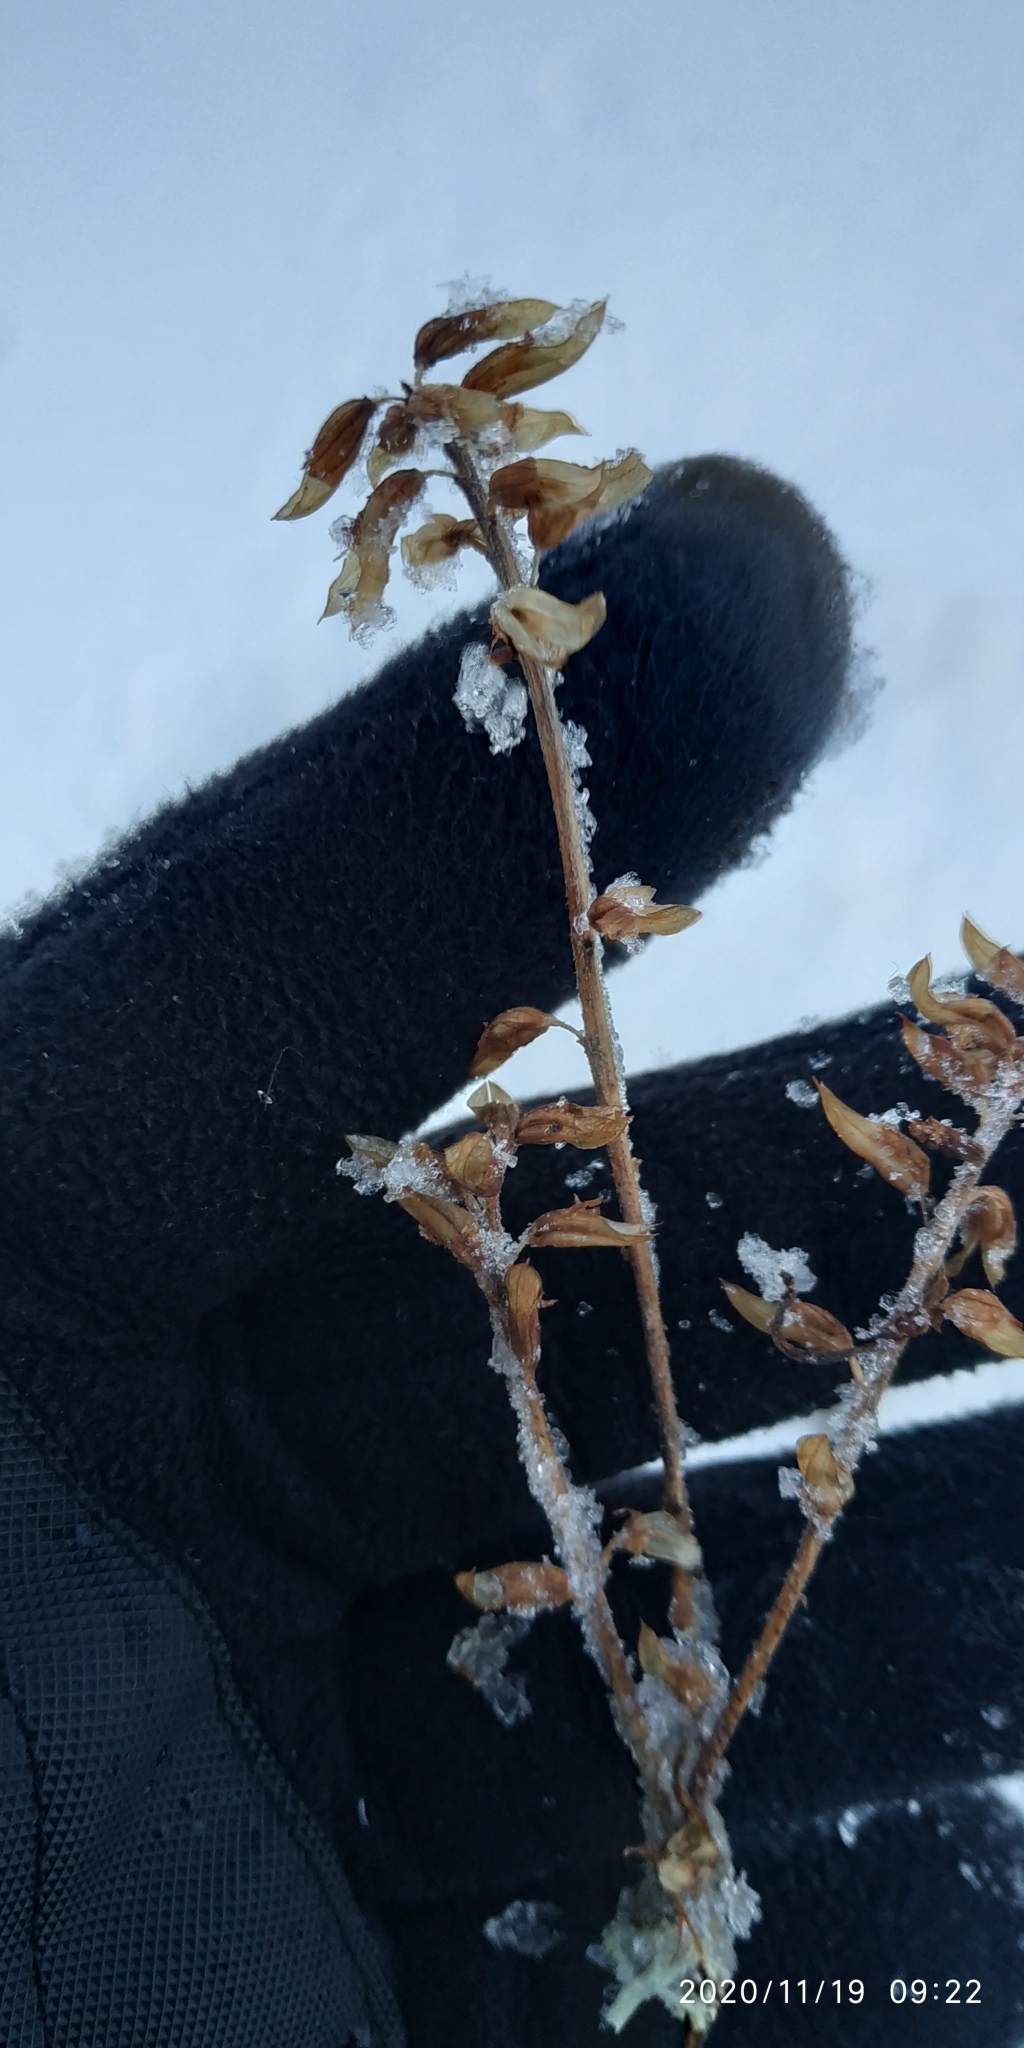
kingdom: Plantae
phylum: Tracheophyta
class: Magnoliopsida
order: Lamiales
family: Orobanchaceae
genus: Pedicularis
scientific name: Pedicularis labradorica
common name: Labrador lousewort
